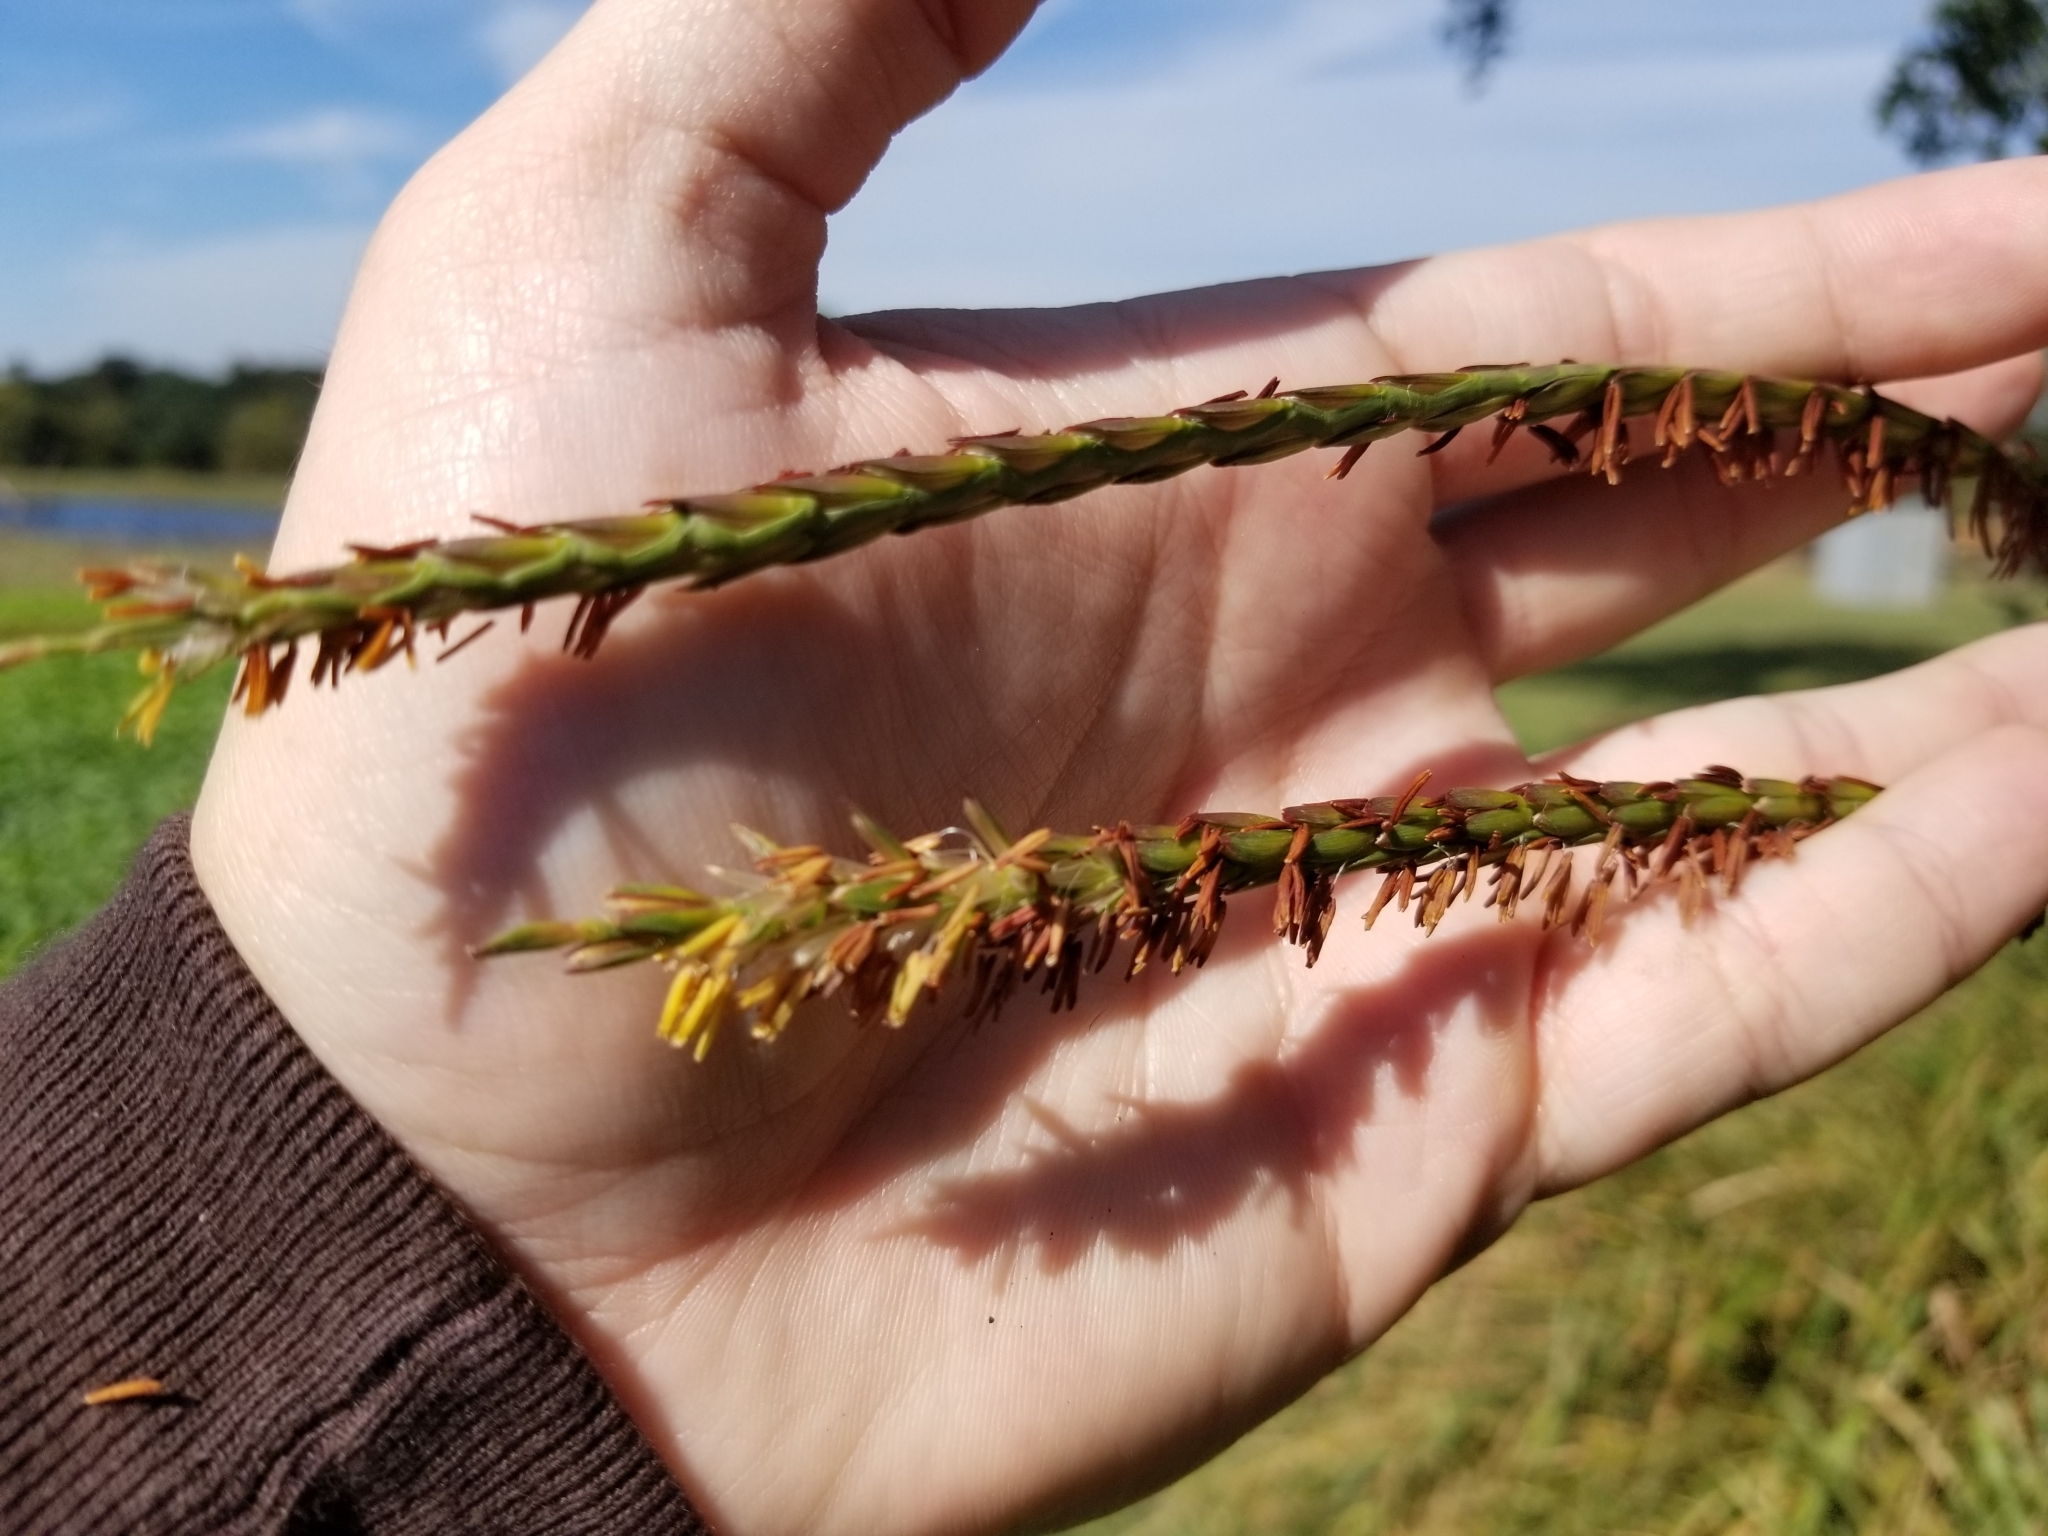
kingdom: Plantae
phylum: Tracheophyta
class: Liliopsida
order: Poales
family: Poaceae
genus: Tripsacum
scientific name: Tripsacum dactyloides
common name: Buffalo-grass
